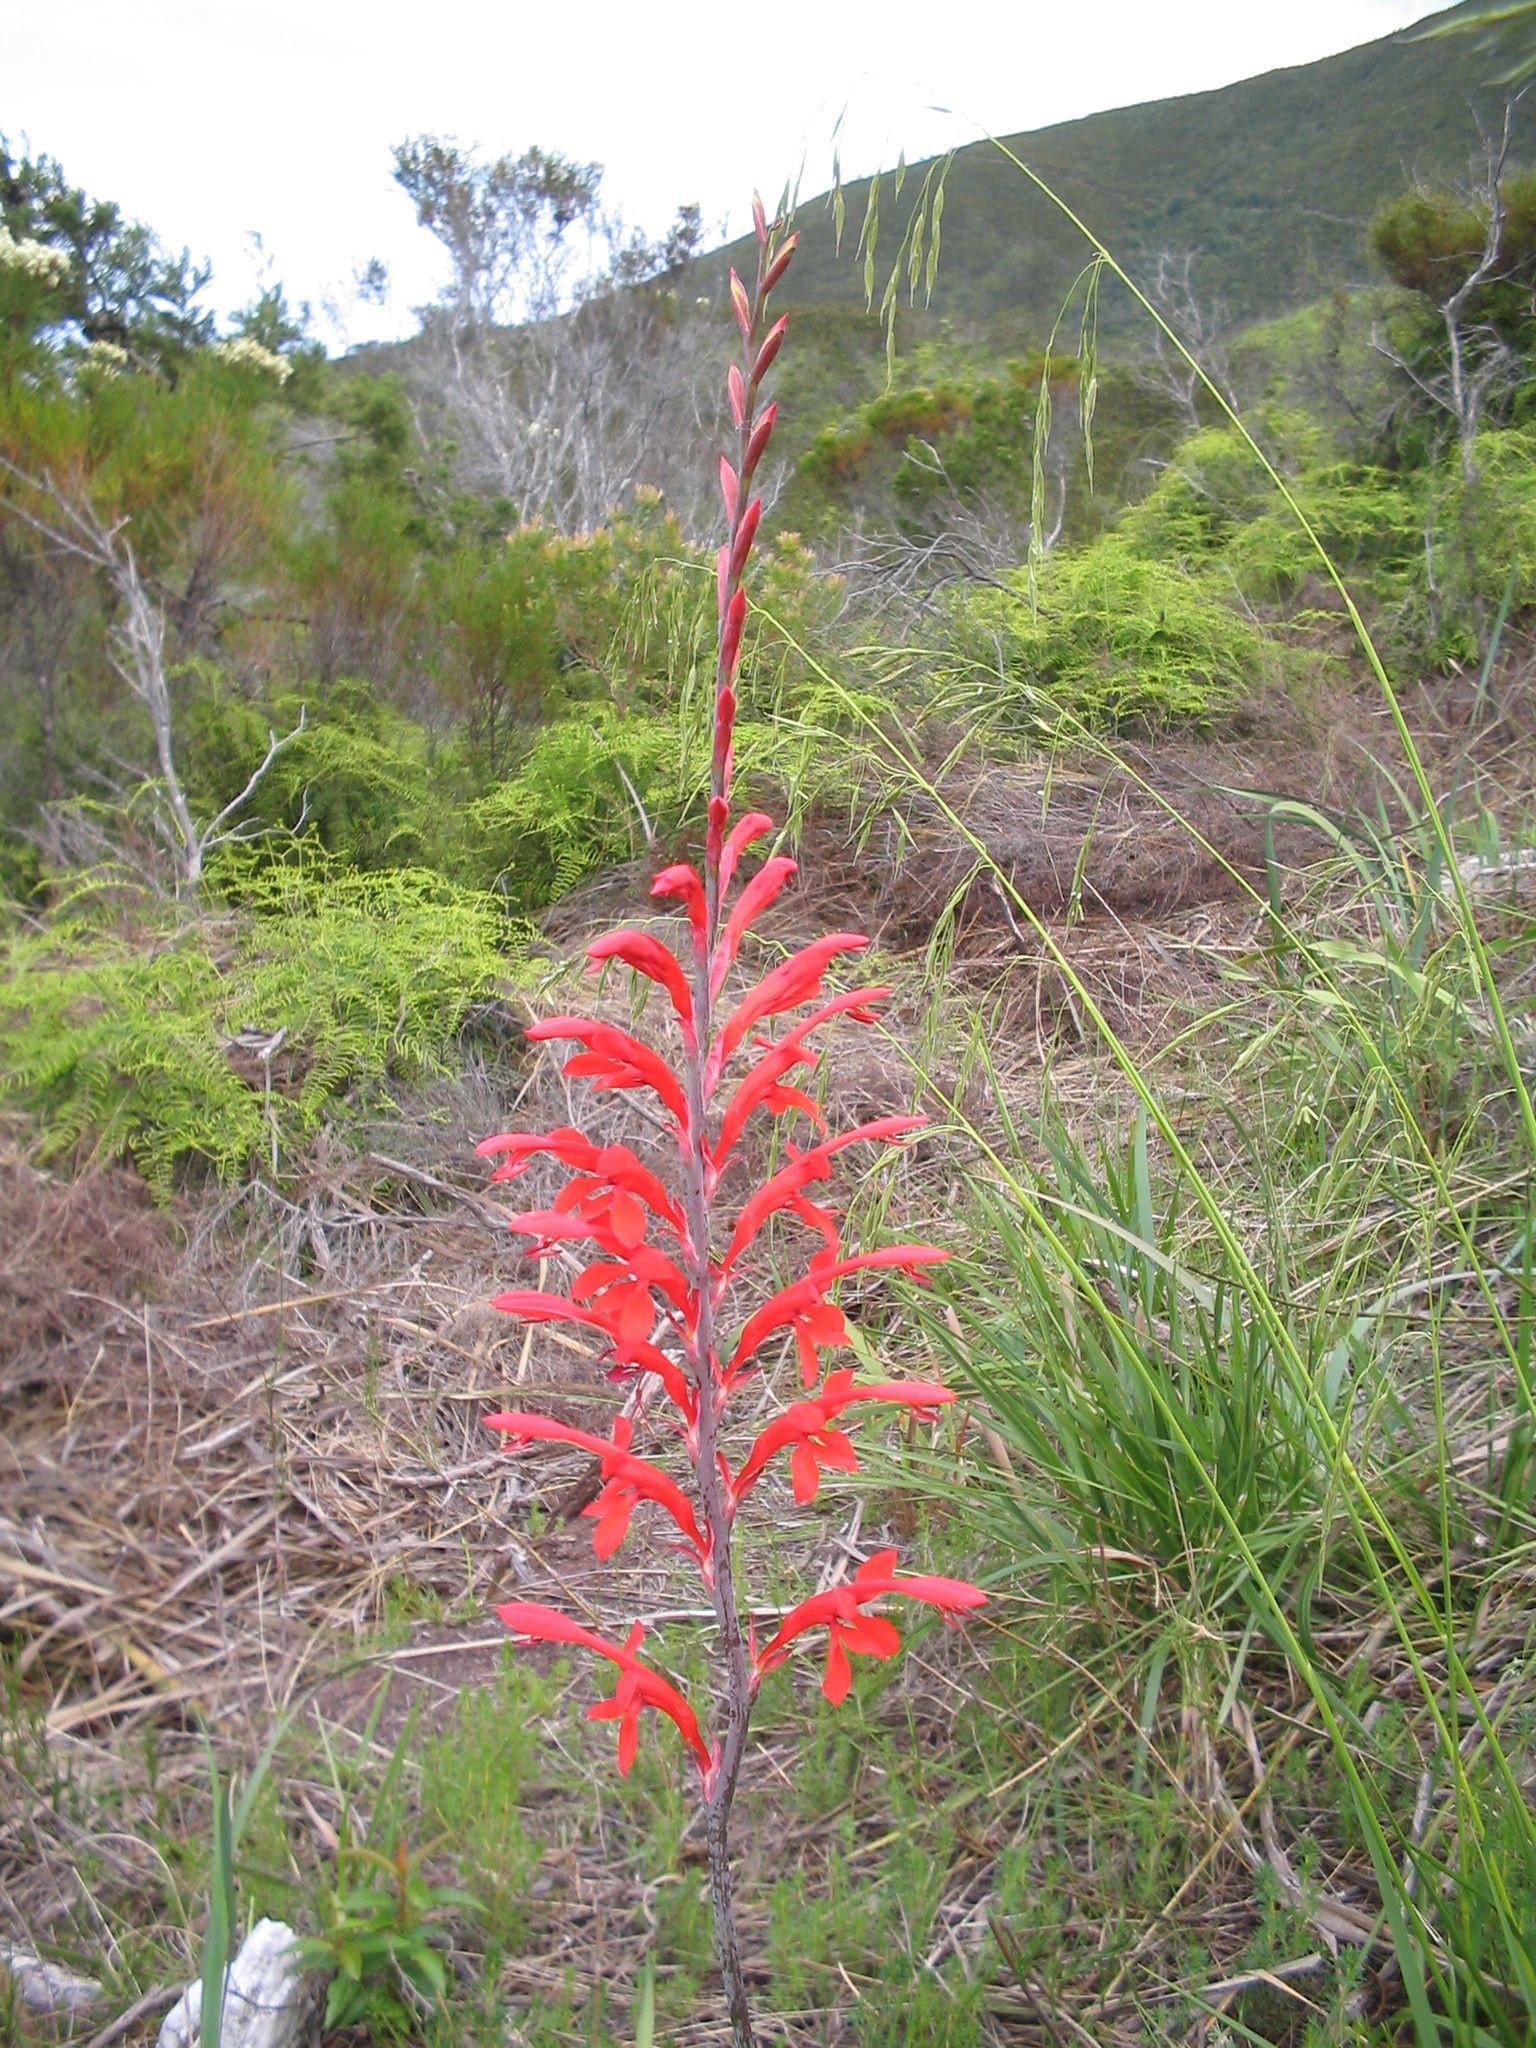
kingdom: Plantae
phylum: Tracheophyta
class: Liliopsida
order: Asparagales
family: Iridaceae
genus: Tritoniopsis
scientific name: Tritoniopsis caffra
